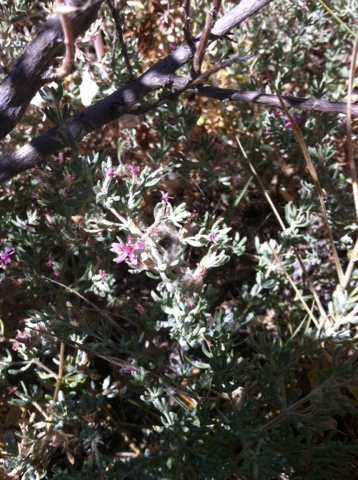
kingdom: Plantae
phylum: Tracheophyta
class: Magnoliopsida
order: Caryophyllales
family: Frankeniaceae
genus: Frankenia
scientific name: Frankenia salina
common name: Alkali seaheath
